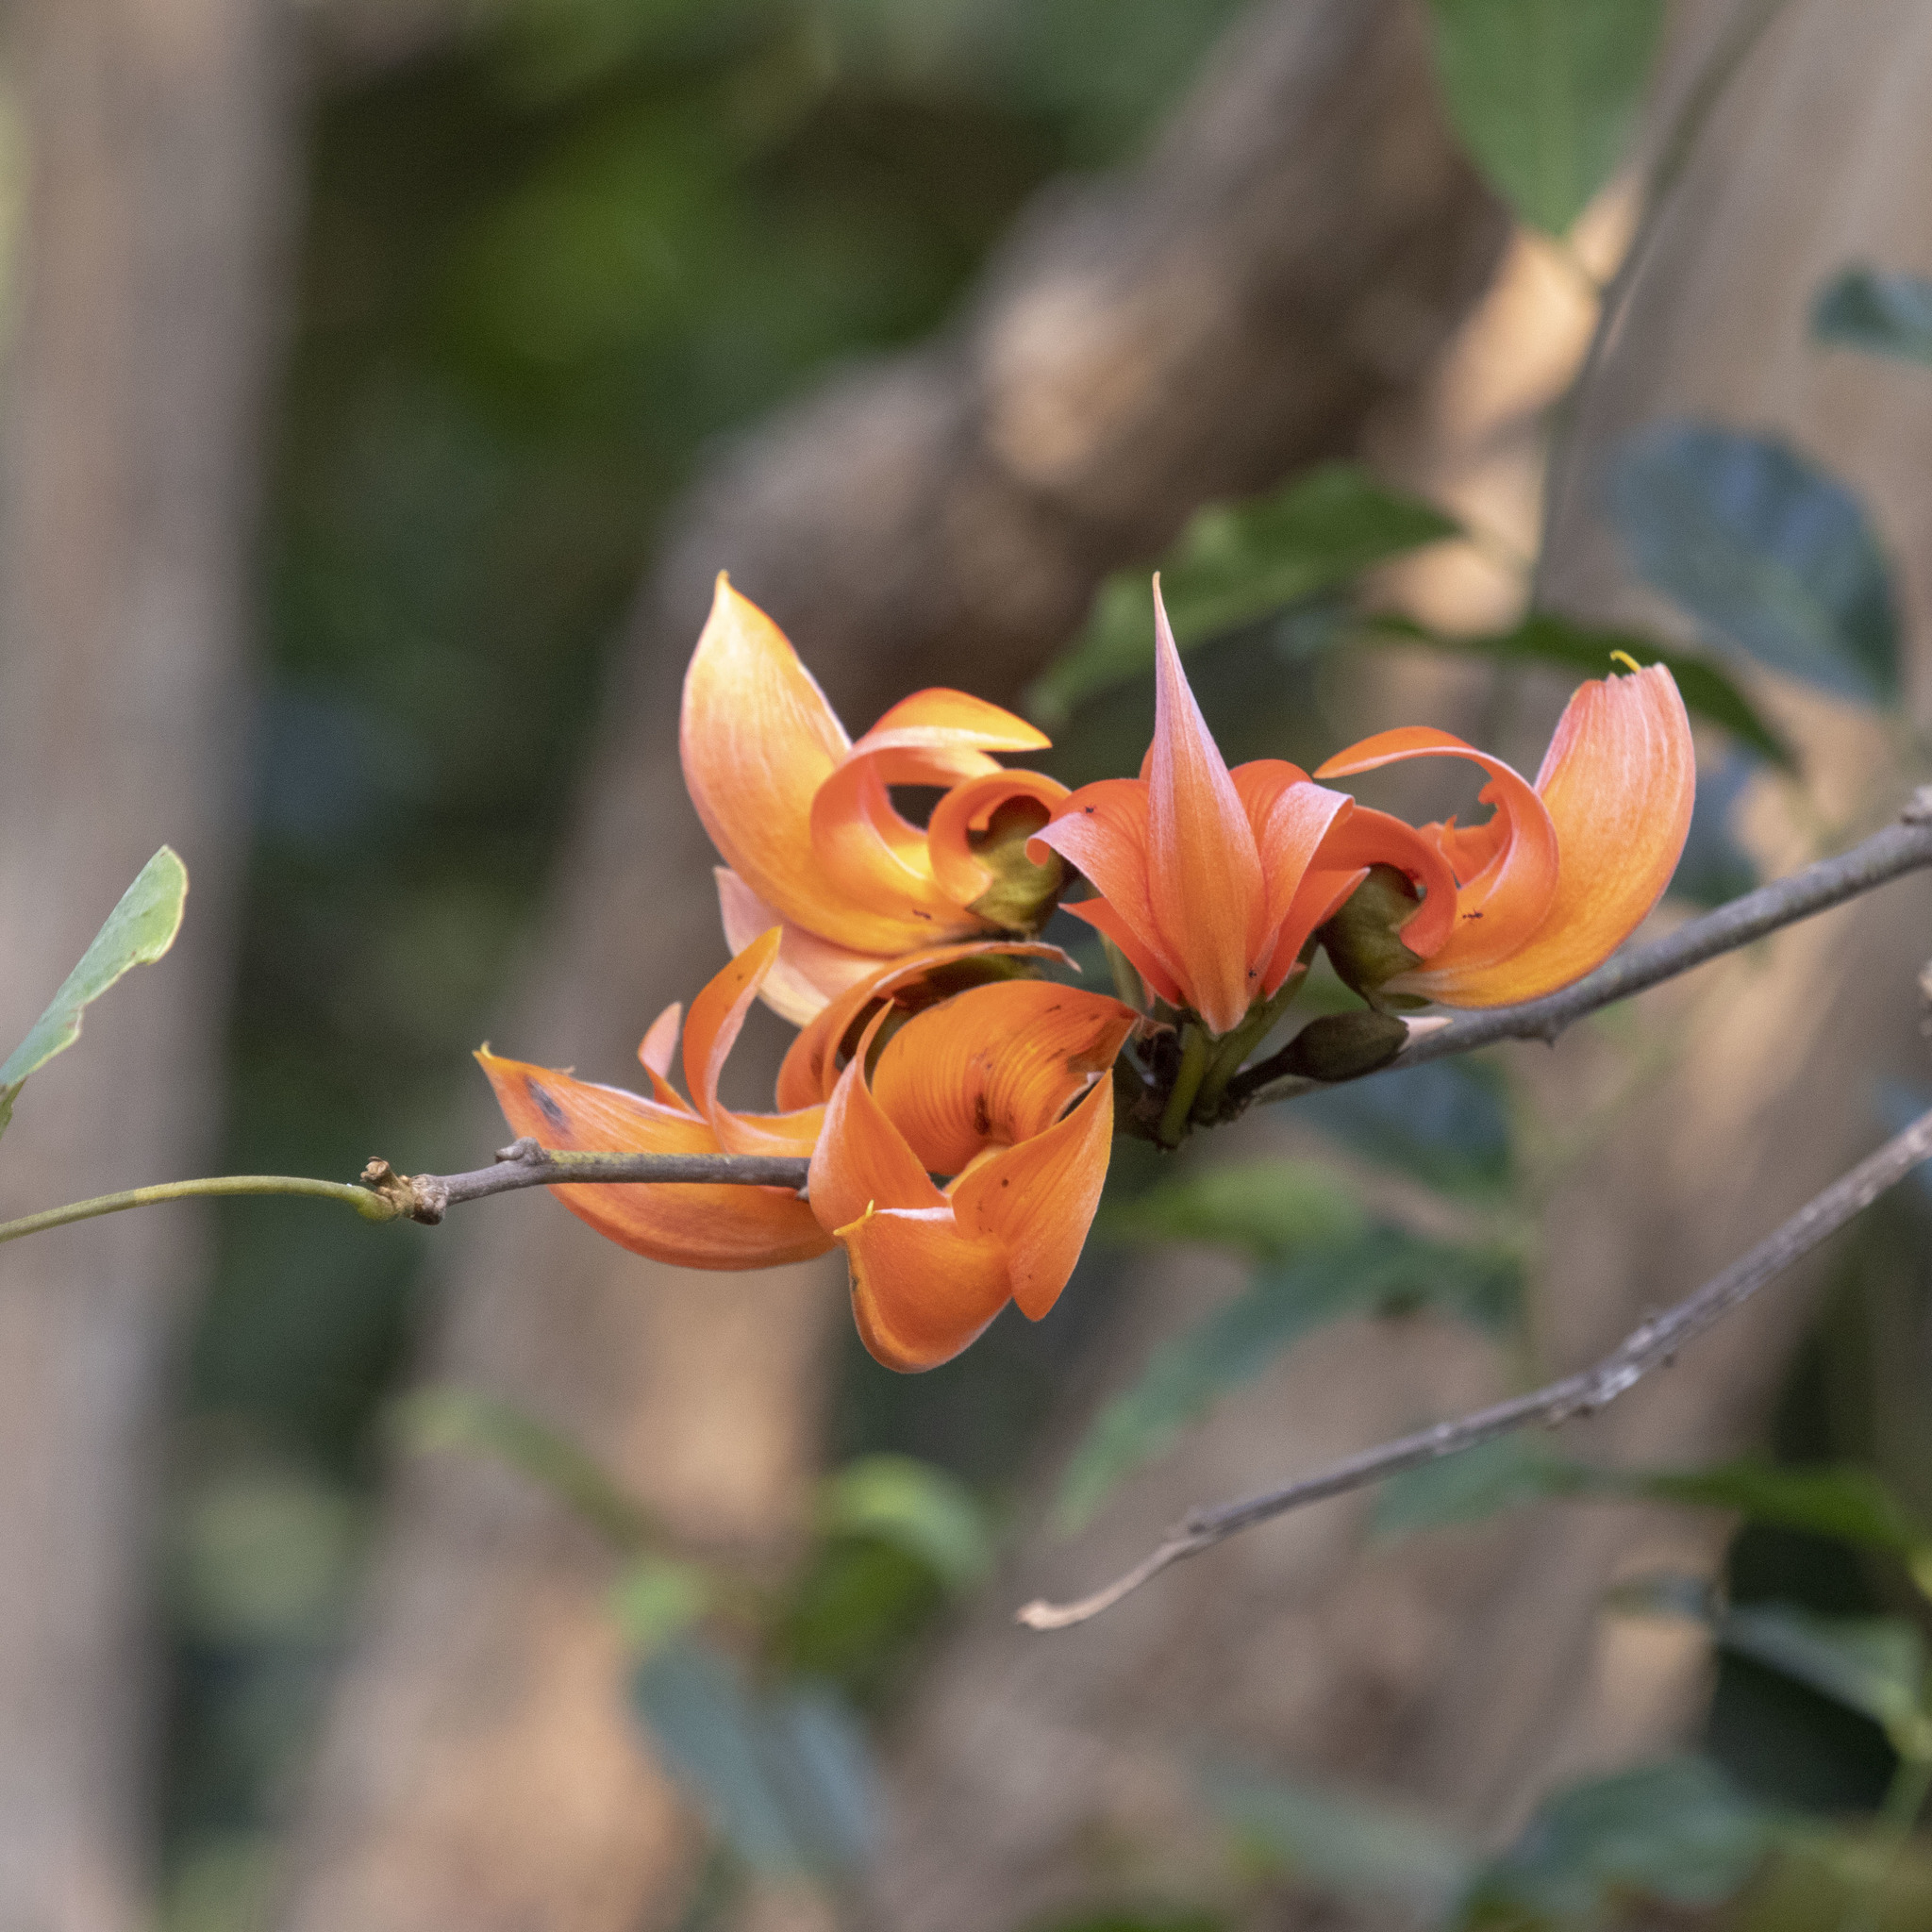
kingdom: Plantae
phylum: Tracheophyta
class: Magnoliopsida
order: Fabales
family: Fabaceae
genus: Butea
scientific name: Butea monosperma
